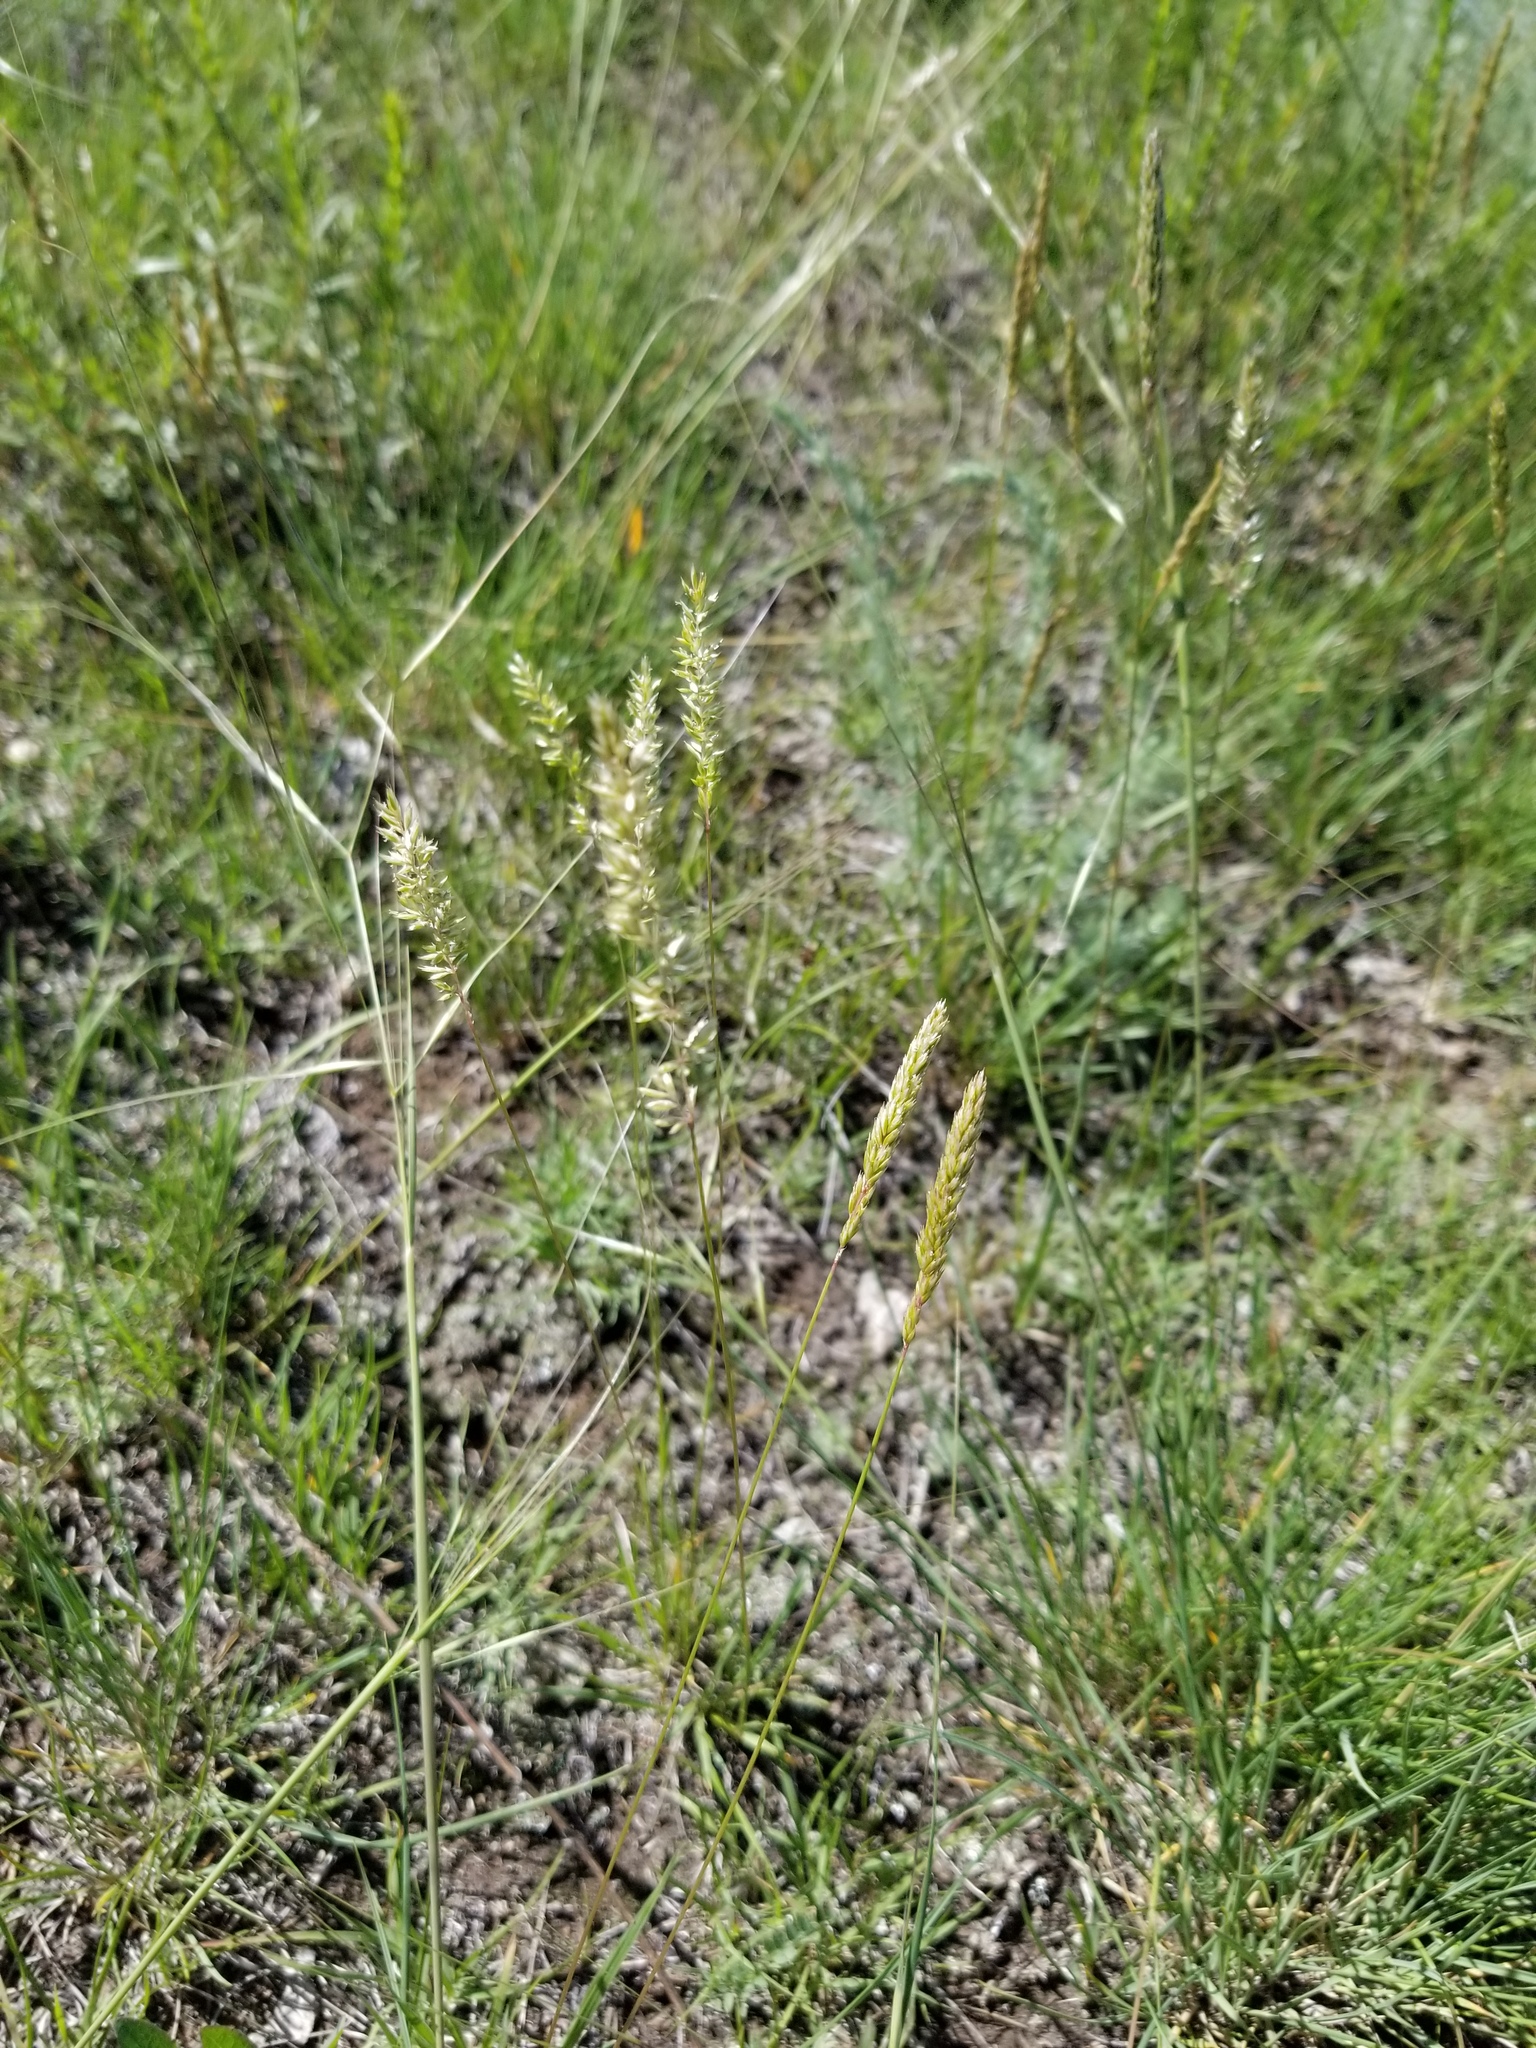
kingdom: Plantae
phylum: Tracheophyta
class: Liliopsida
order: Poales
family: Poaceae
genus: Koeleria
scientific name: Koeleria macrantha
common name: Crested hair-grass
